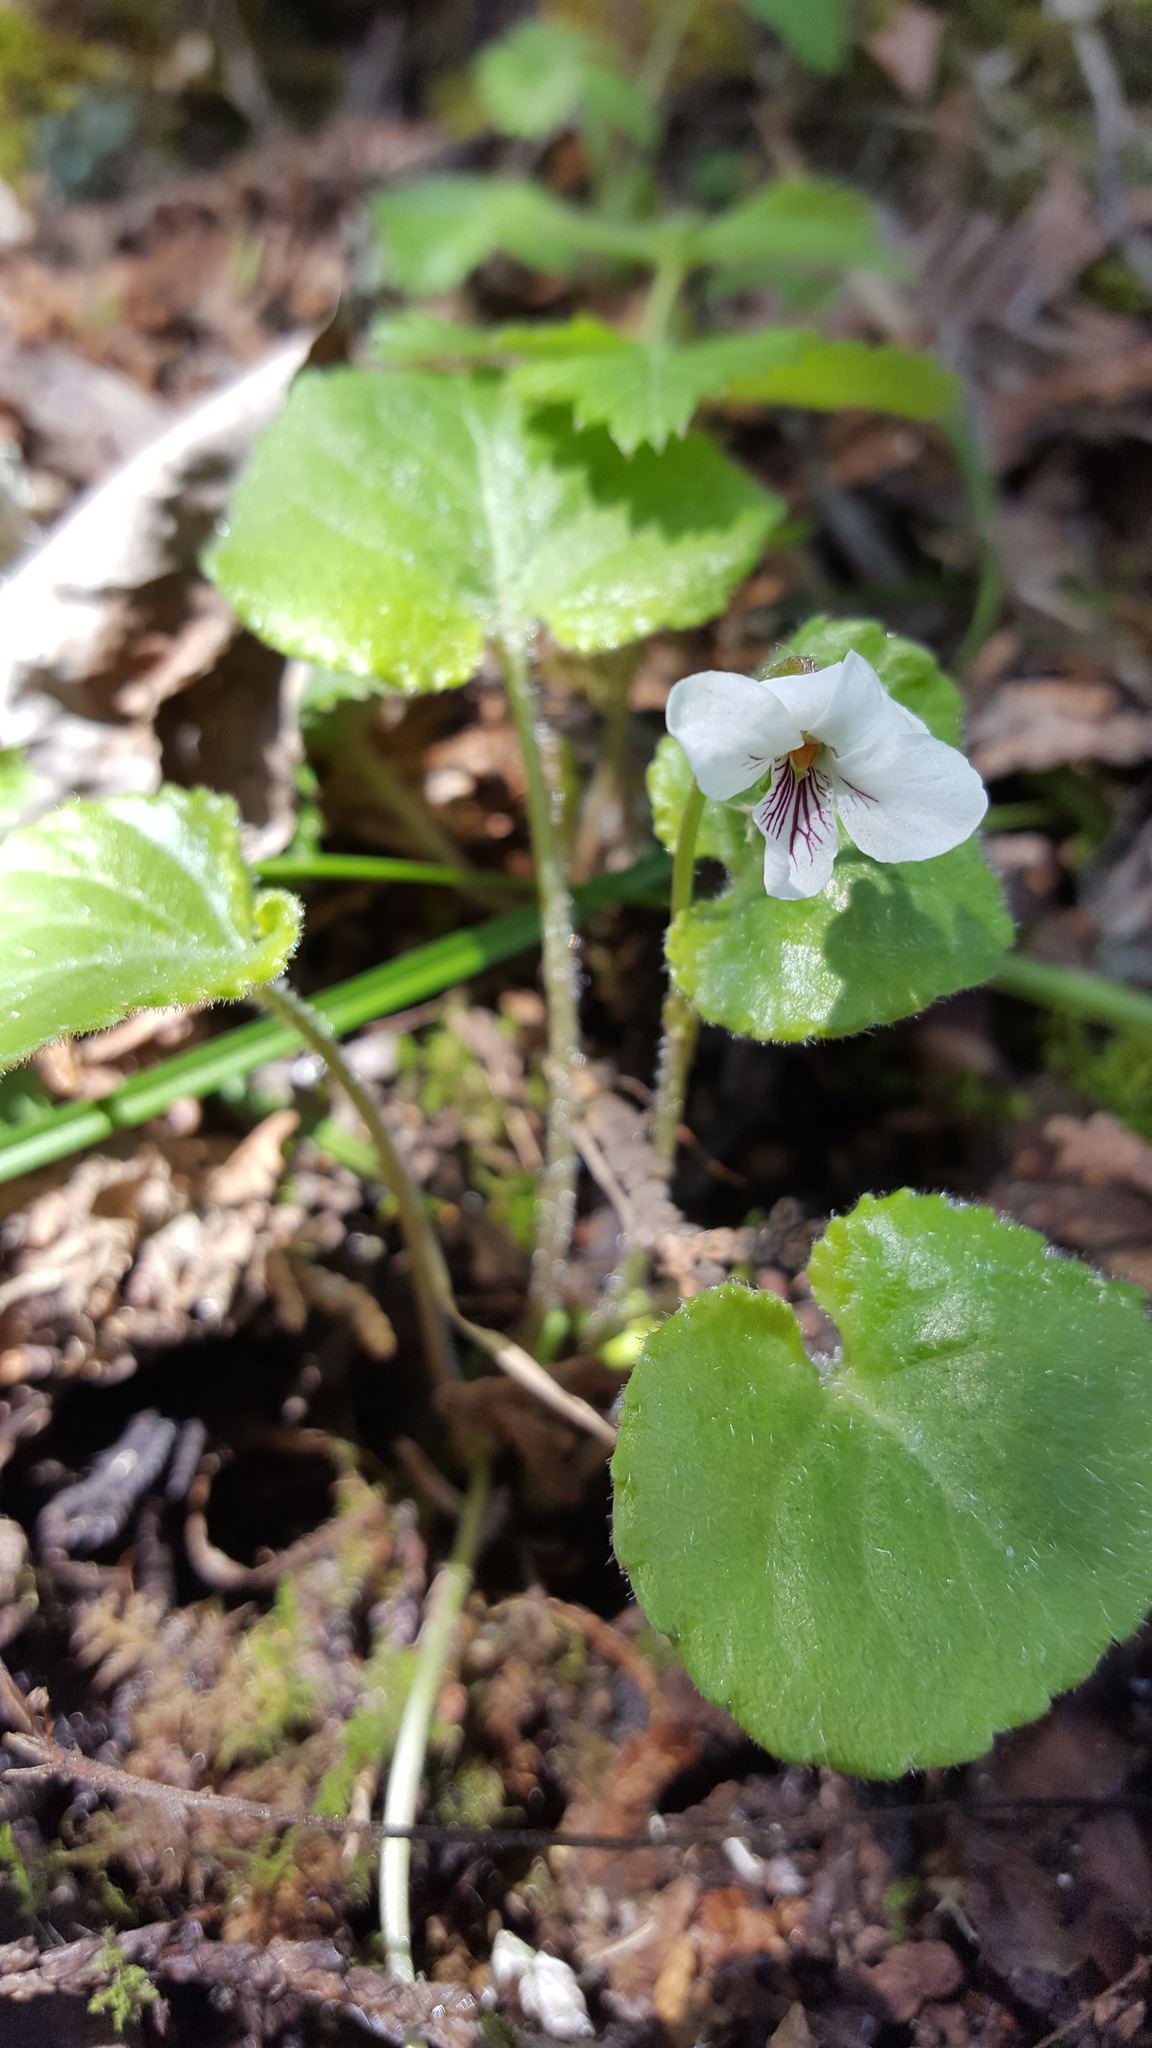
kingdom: Plantae
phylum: Tracheophyta
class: Magnoliopsida
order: Malpighiales
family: Violaceae
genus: Viola
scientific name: Viola renifolia
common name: Kidney-leaf violet
